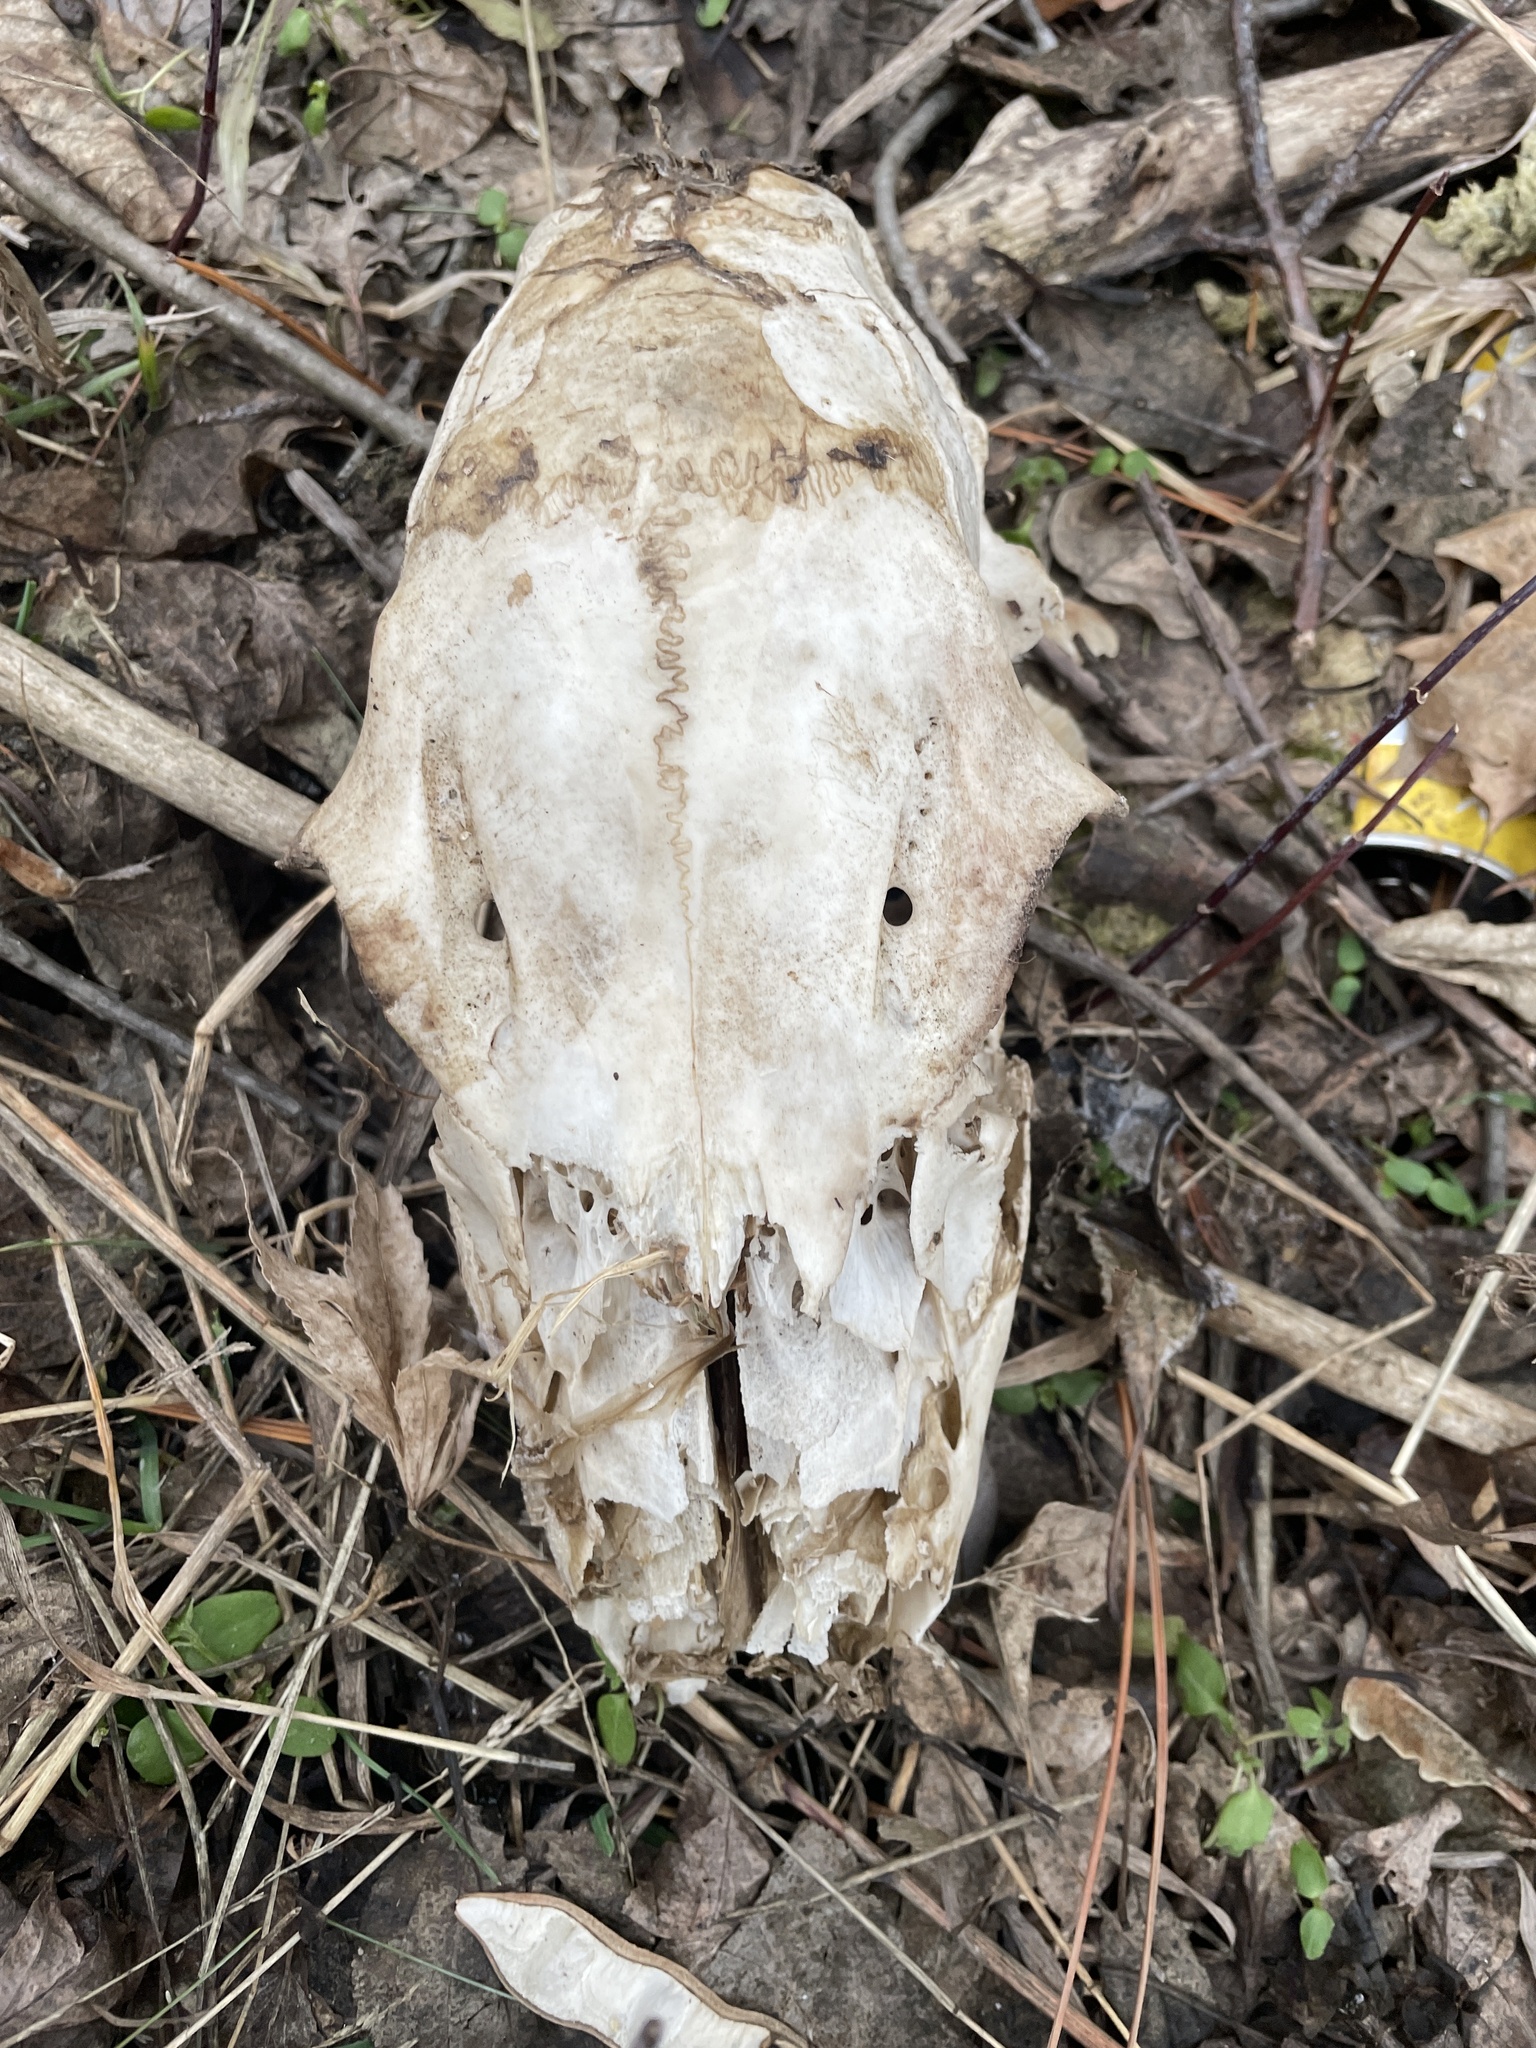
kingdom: Animalia
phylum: Chordata
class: Mammalia
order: Artiodactyla
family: Cervidae
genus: Odocoileus
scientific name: Odocoileus virginianus
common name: White-tailed deer
